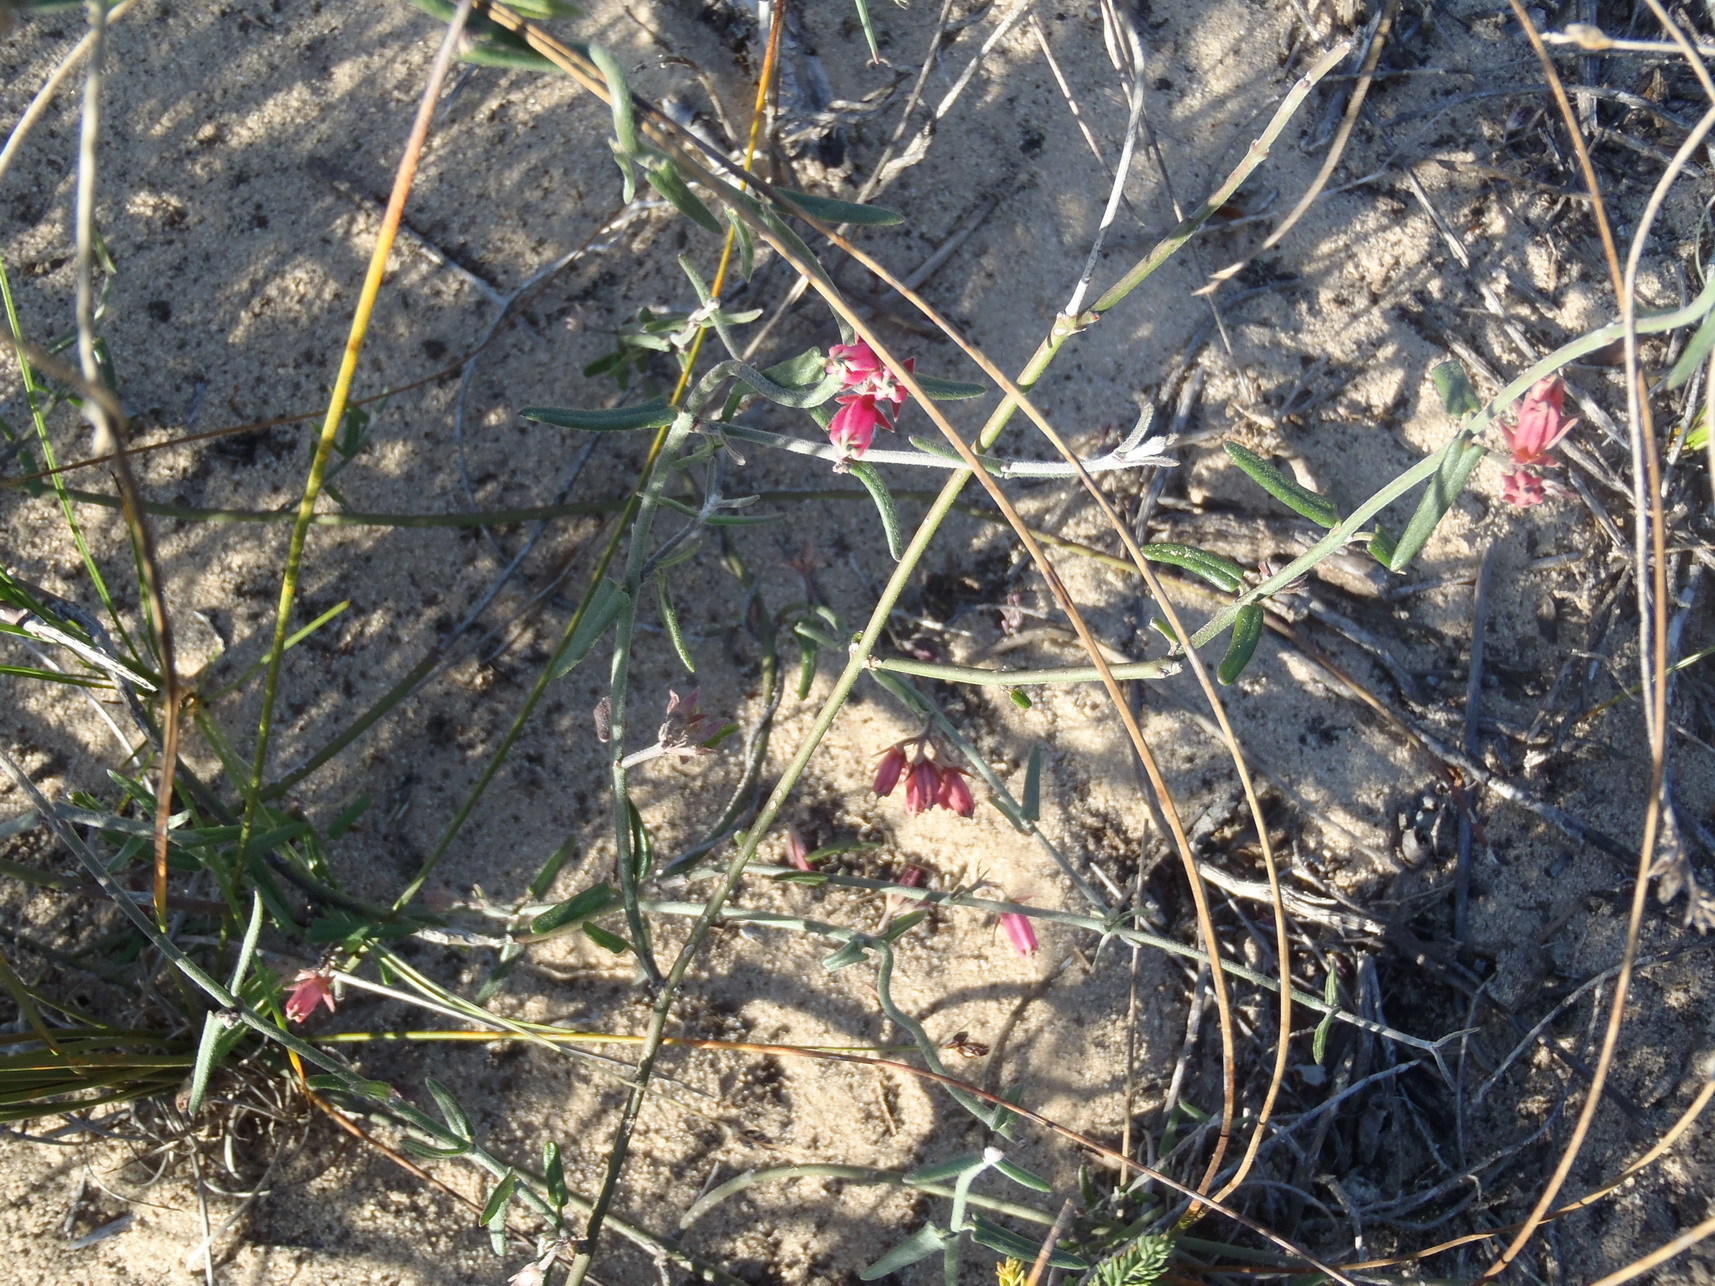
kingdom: Plantae
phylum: Tracheophyta
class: Magnoliopsida
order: Gentianales
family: Apocynaceae
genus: Microloma
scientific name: Microloma sagittatum
